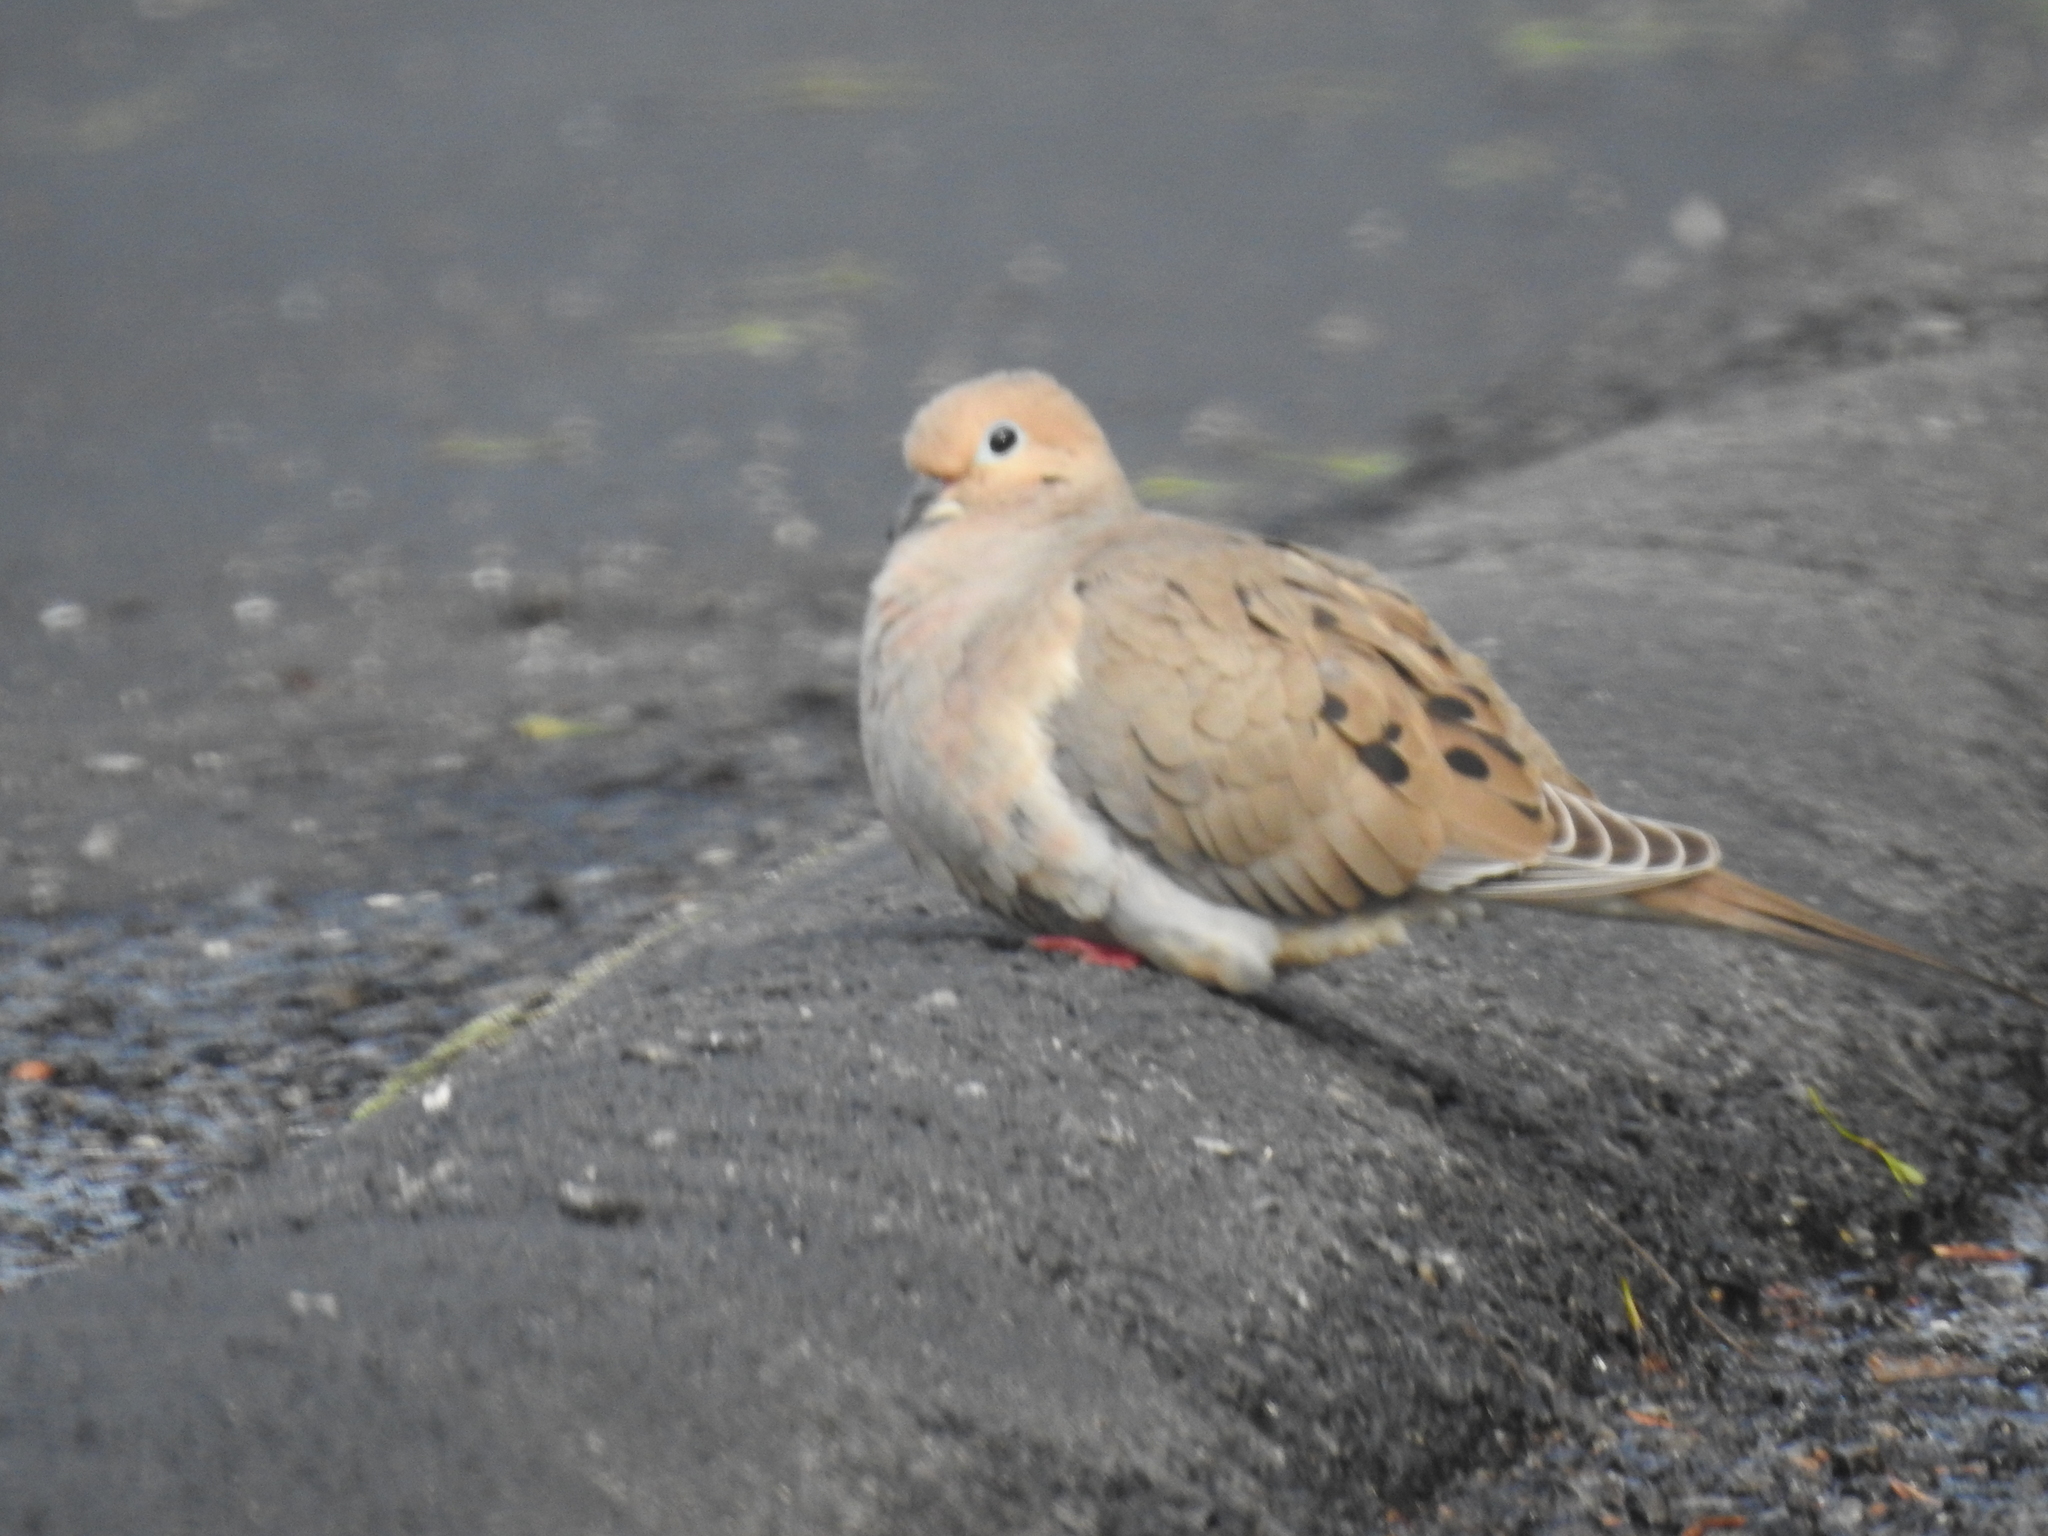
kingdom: Animalia
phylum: Chordata
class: Aves
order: Columbiformes
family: Columbidae
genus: Zenaida
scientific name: Zenaida macroura
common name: Mourning dove
